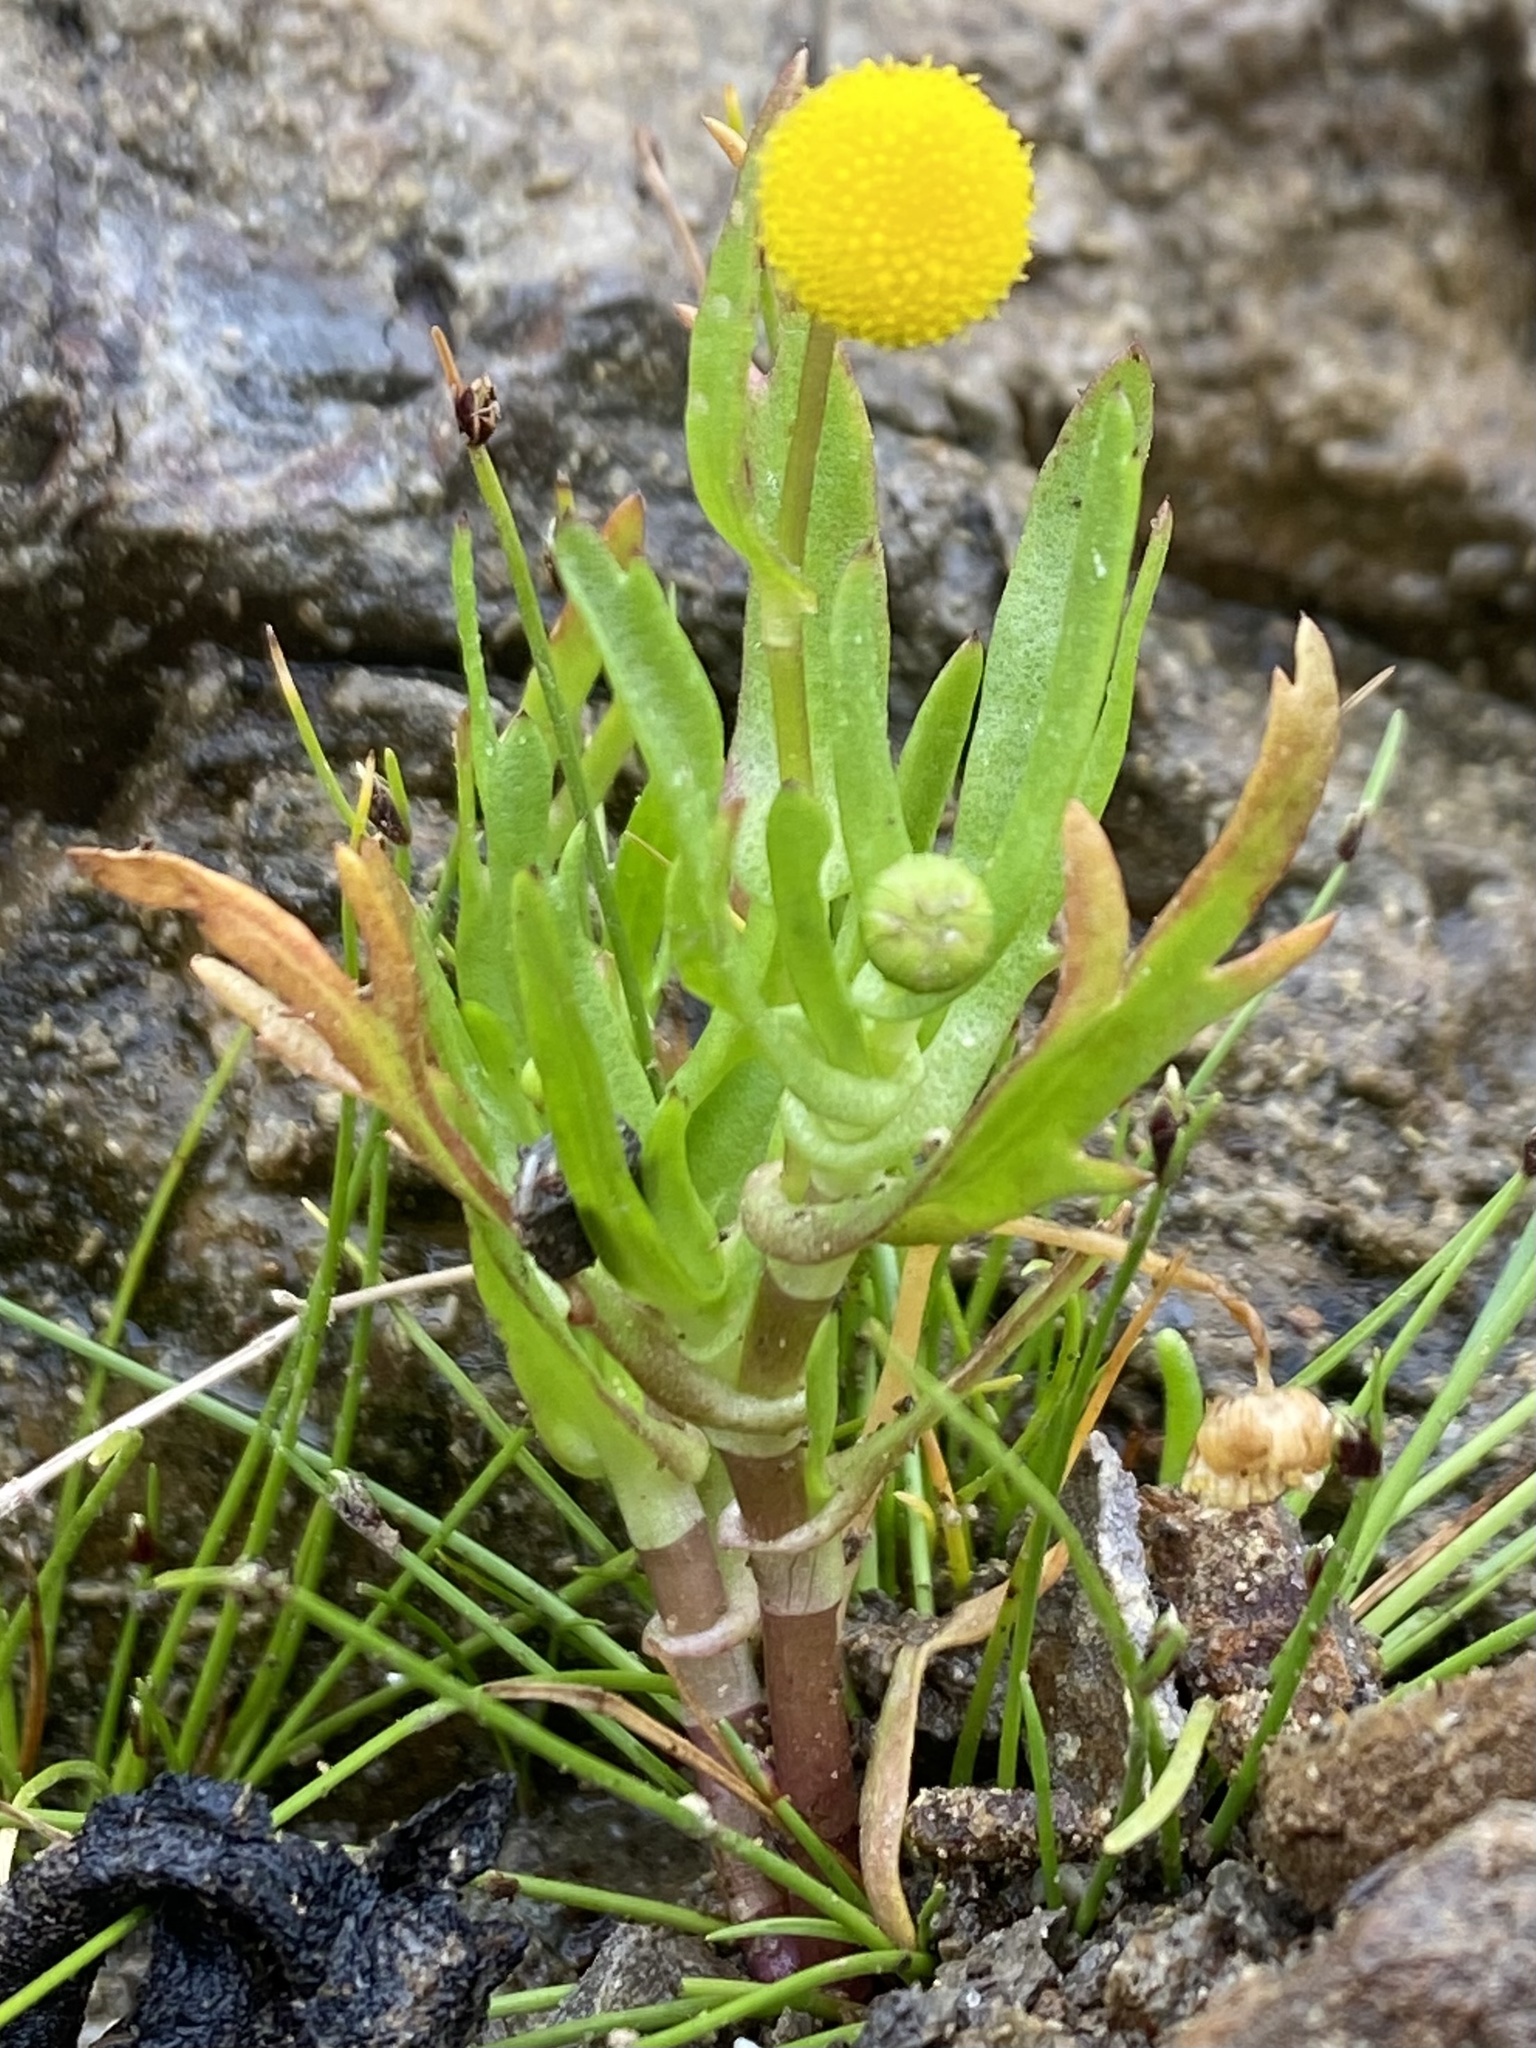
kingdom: Plantae
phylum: Tracheophyta
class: Magnoliopsida
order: Asterales
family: Asteraceae
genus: Cotula
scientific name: Cotula coronopifolia
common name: Buttonweed
